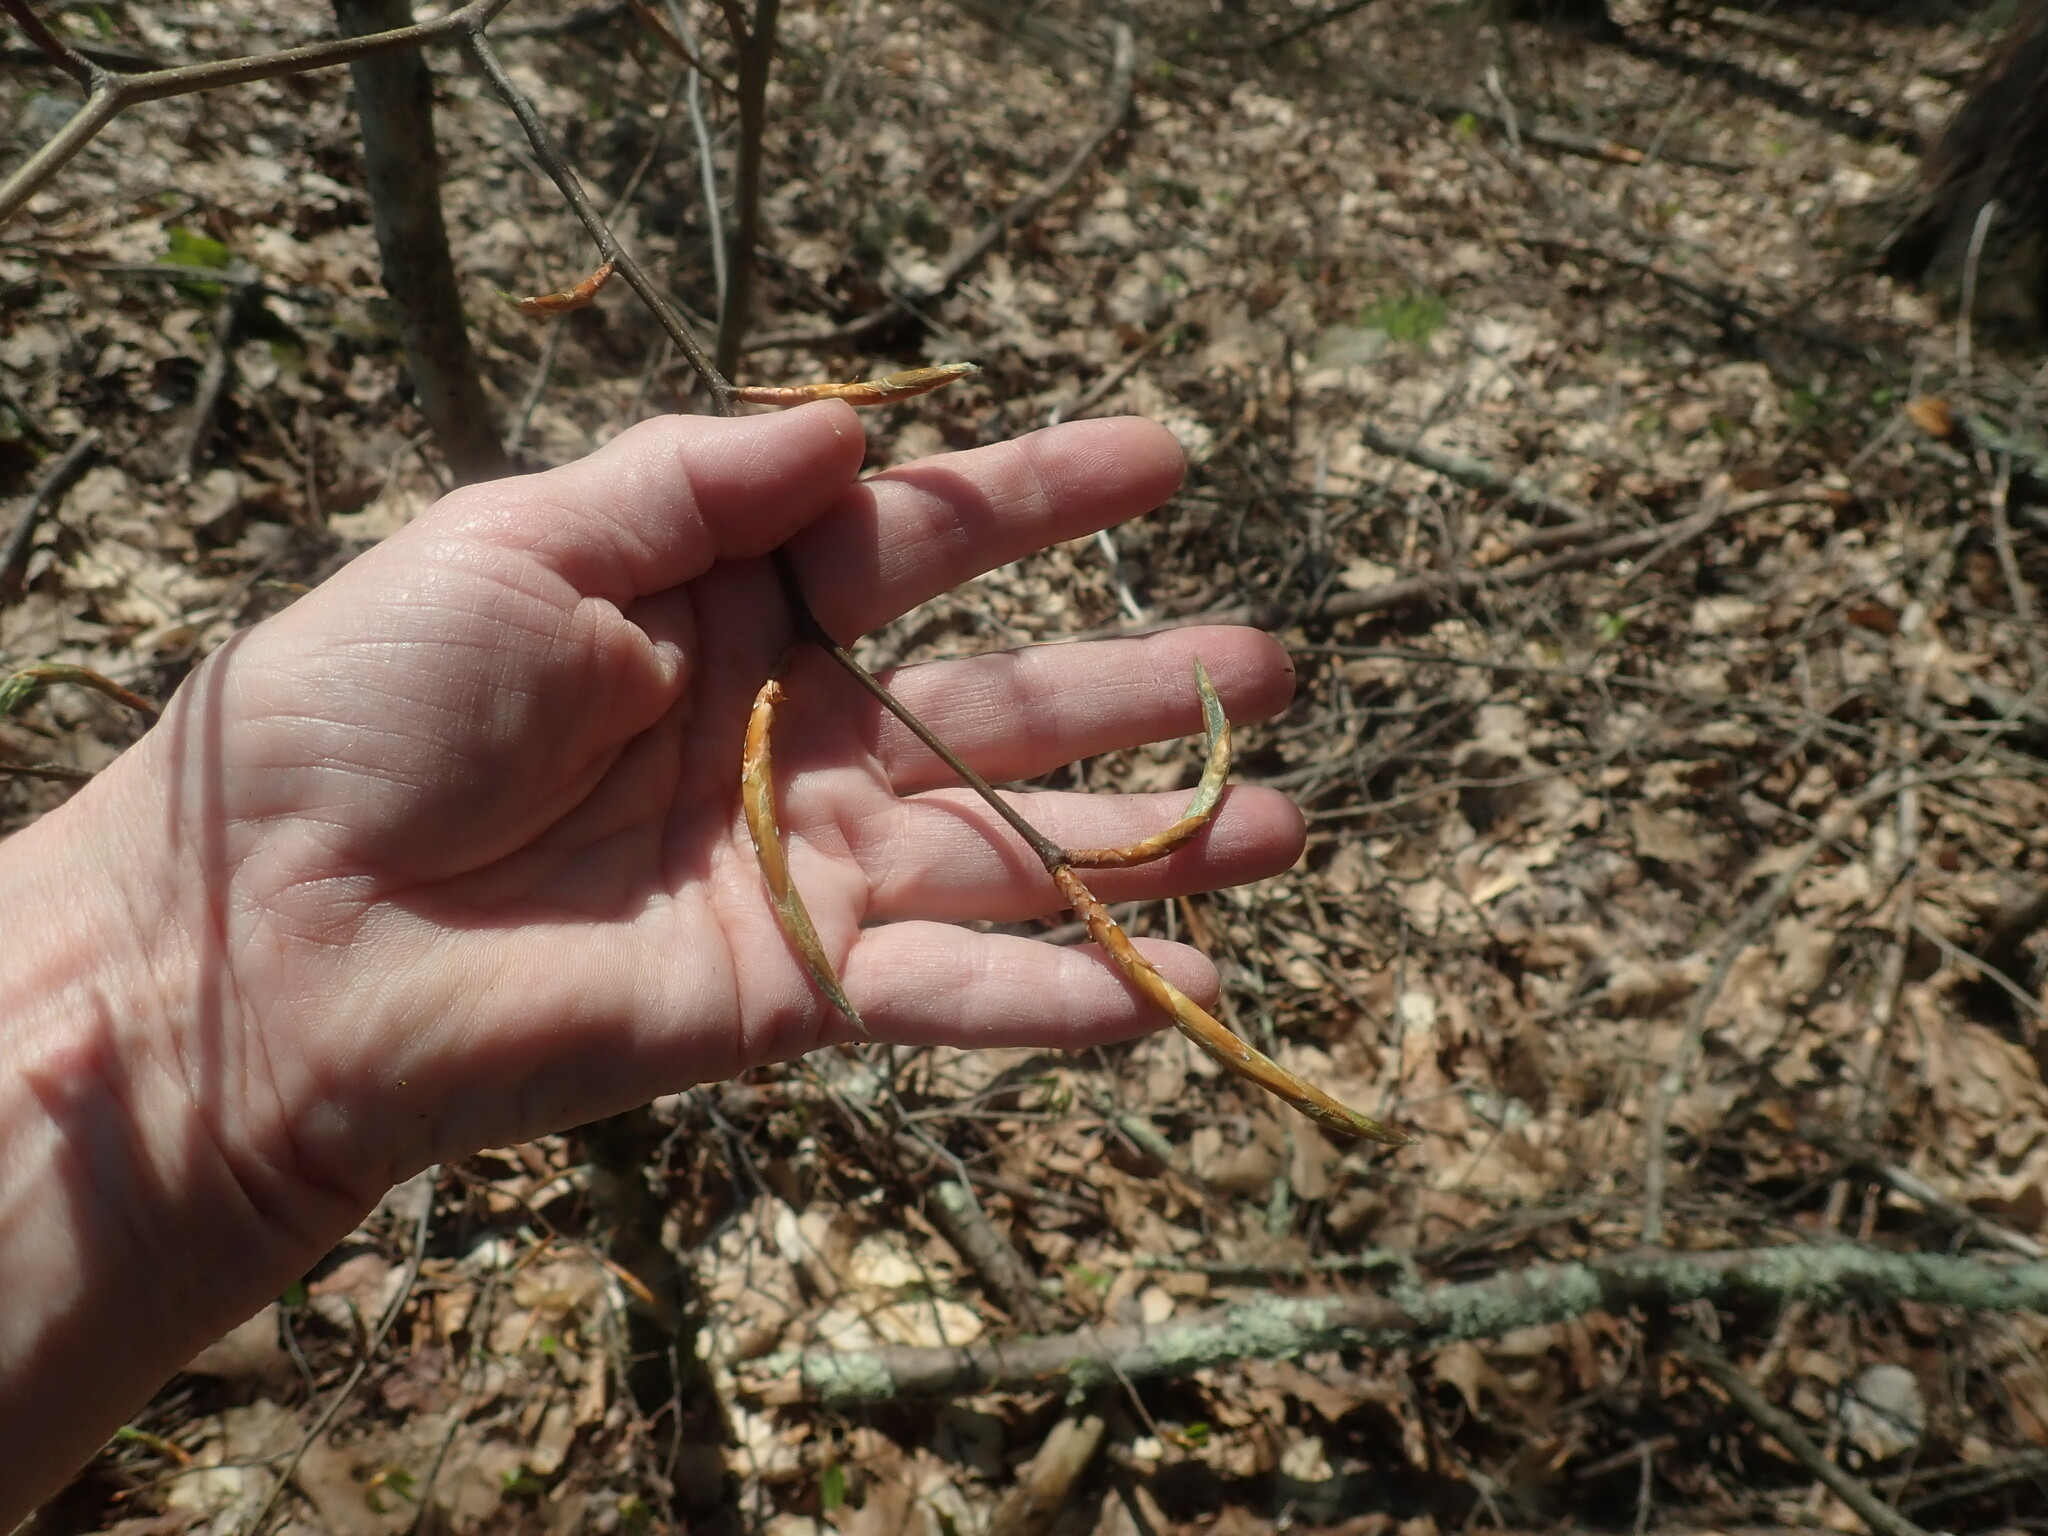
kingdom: Plantae
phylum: Tracheophyta
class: Magnoliopsida
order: Fagales
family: Fagaceae
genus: Fagus
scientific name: Fagus grandifolia
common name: American beech
